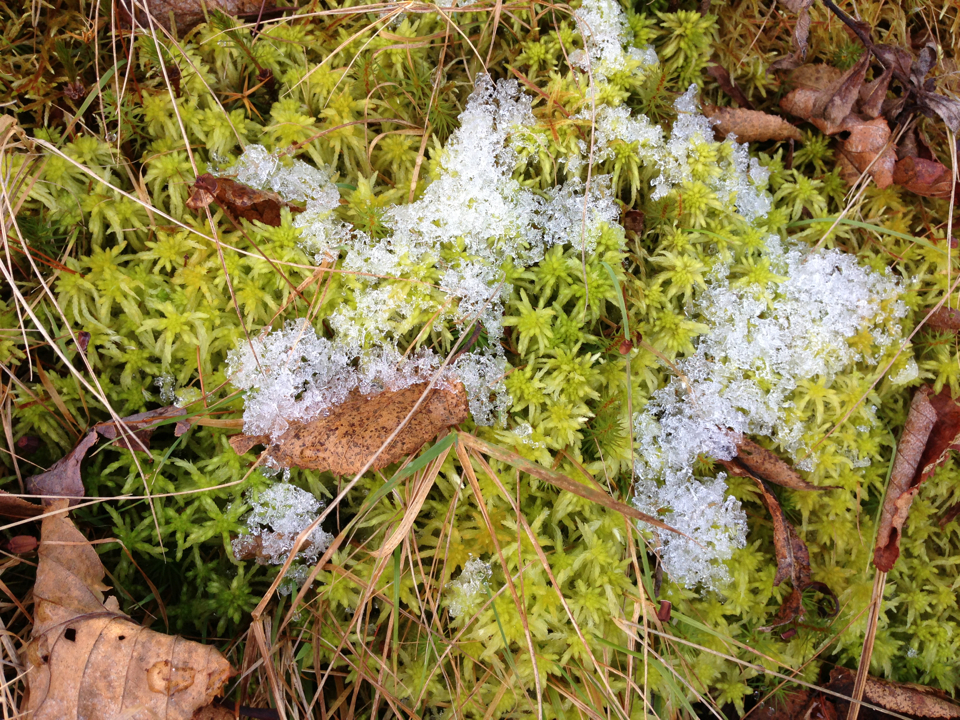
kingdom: Plantae
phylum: Bryophyta
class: Sphagnopsida
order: Sphagnales
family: Sphagnaceae
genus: Sphagnum
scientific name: Sphagnum
